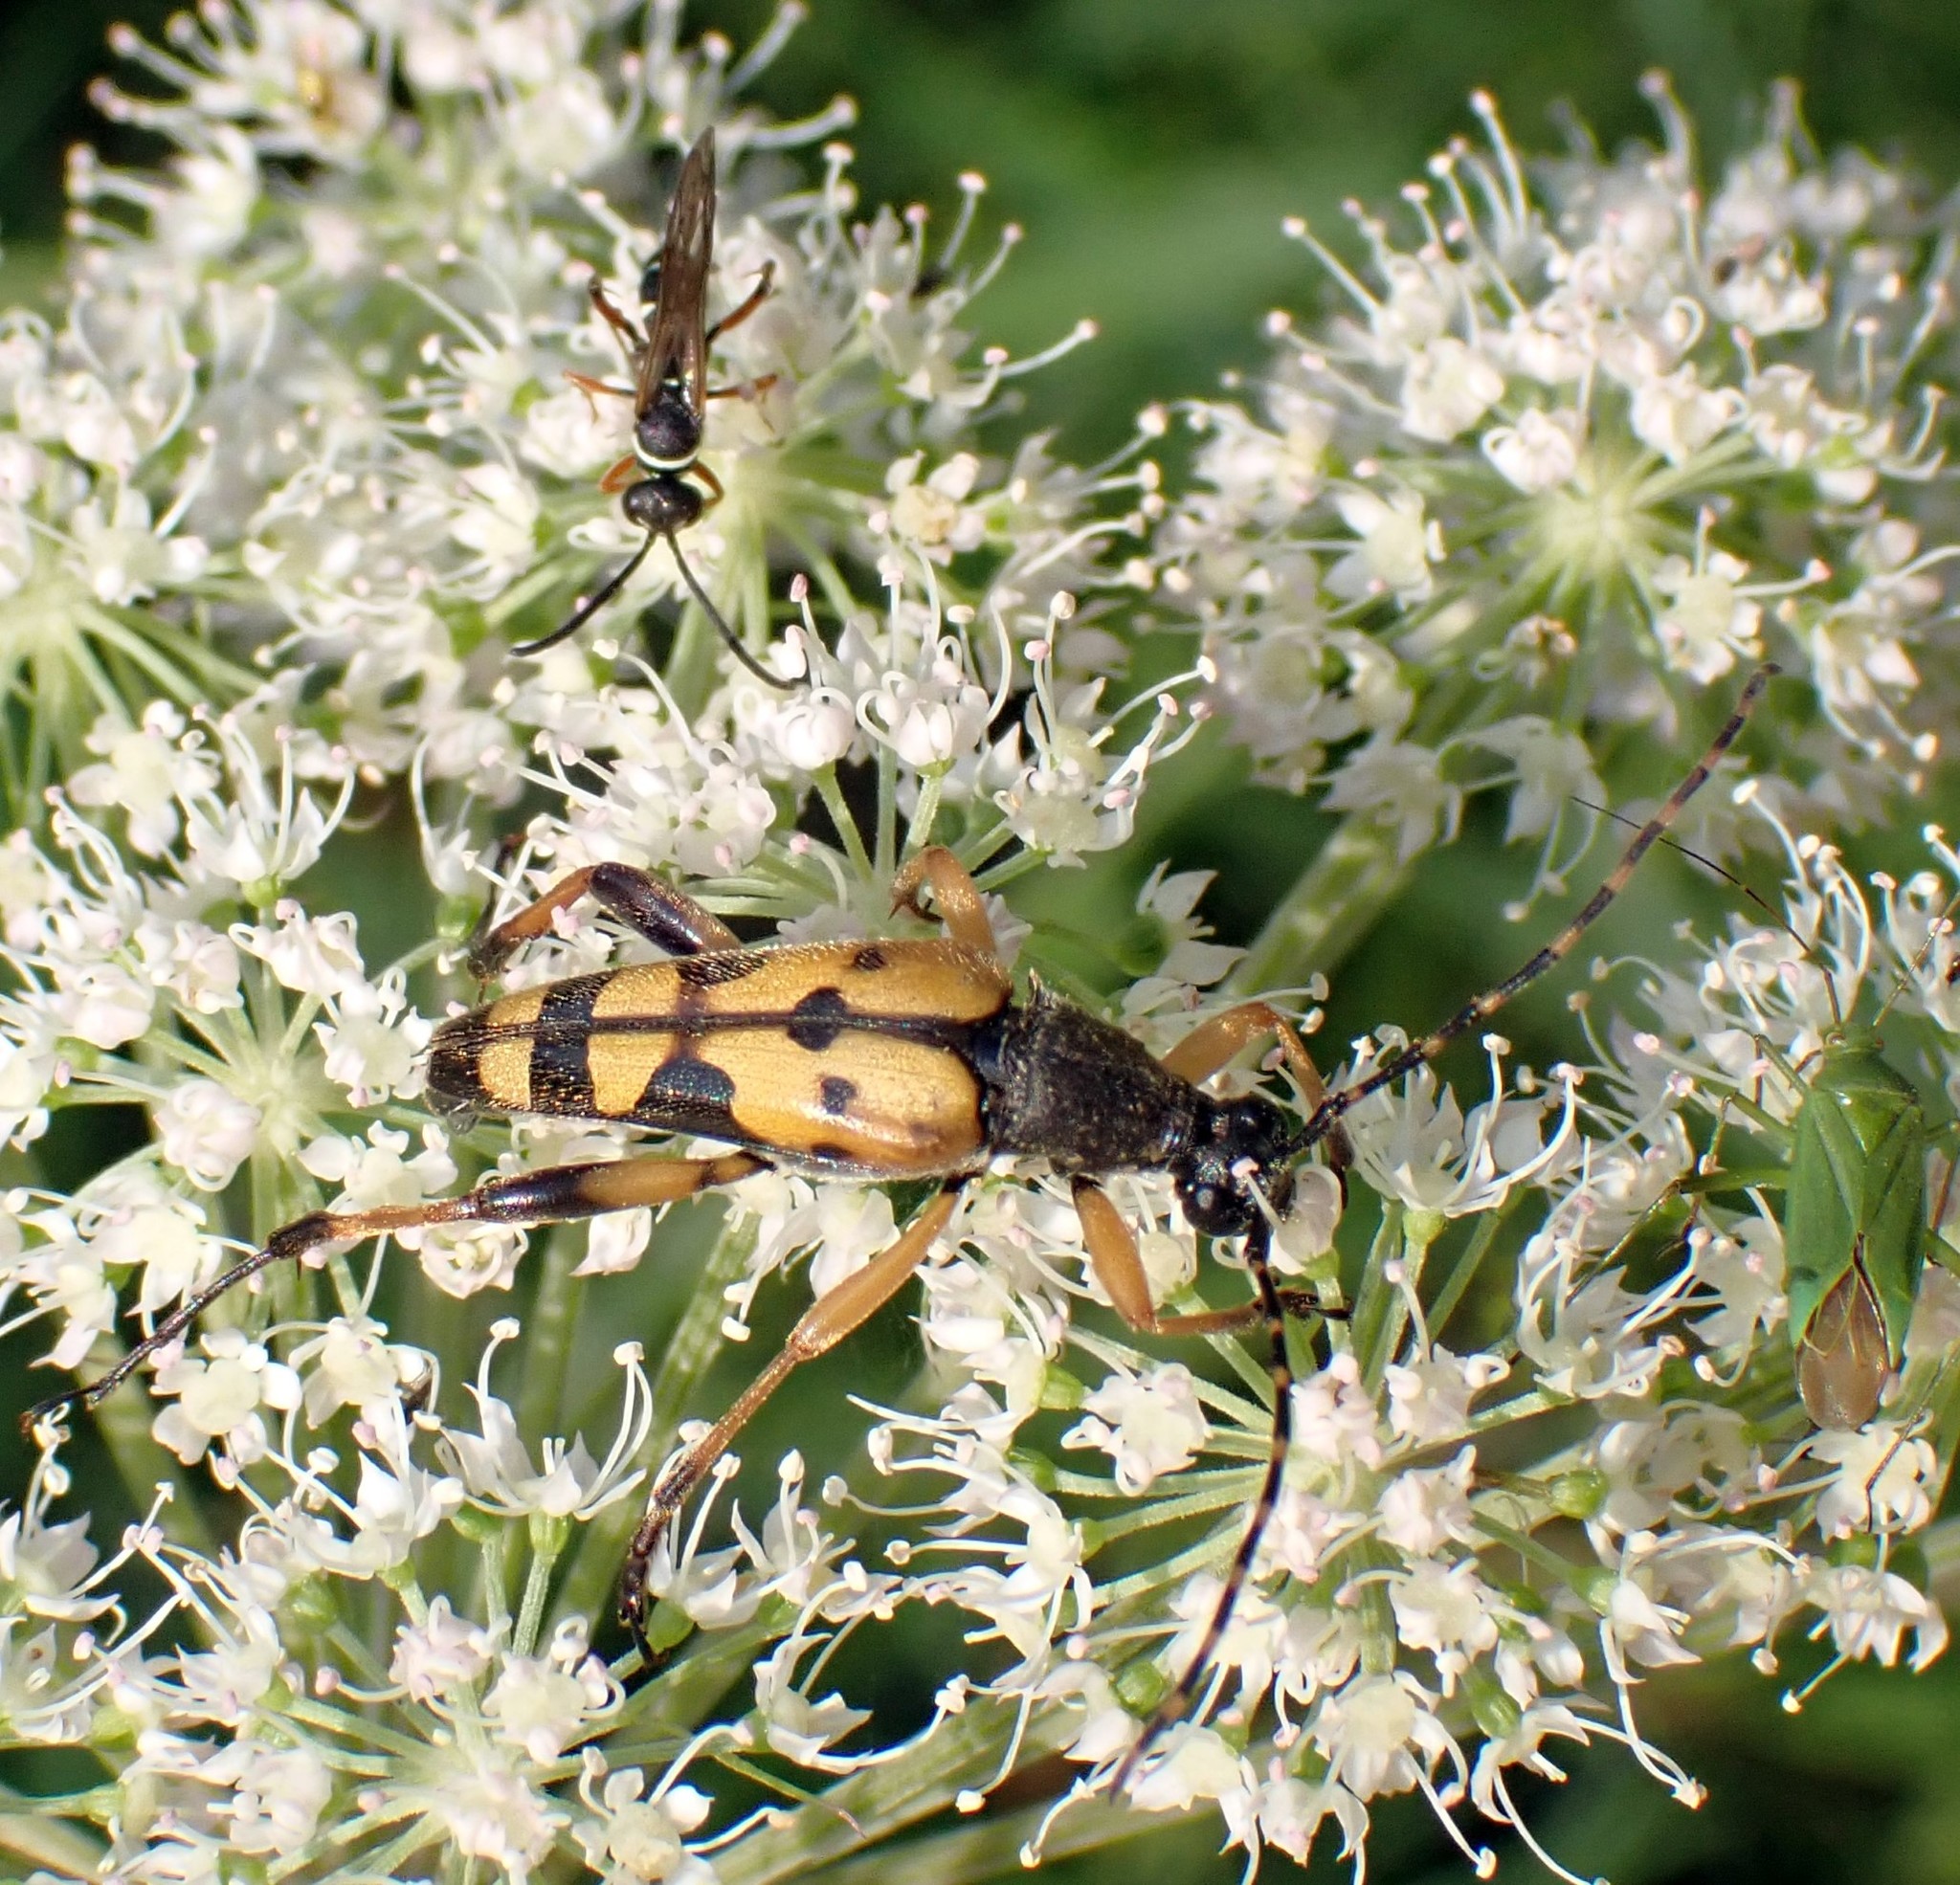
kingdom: Animalia
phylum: Arthropoda
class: Insecta
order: Coleoptera
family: Cerambycidae
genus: Rutpela
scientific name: Rutpela maculata
